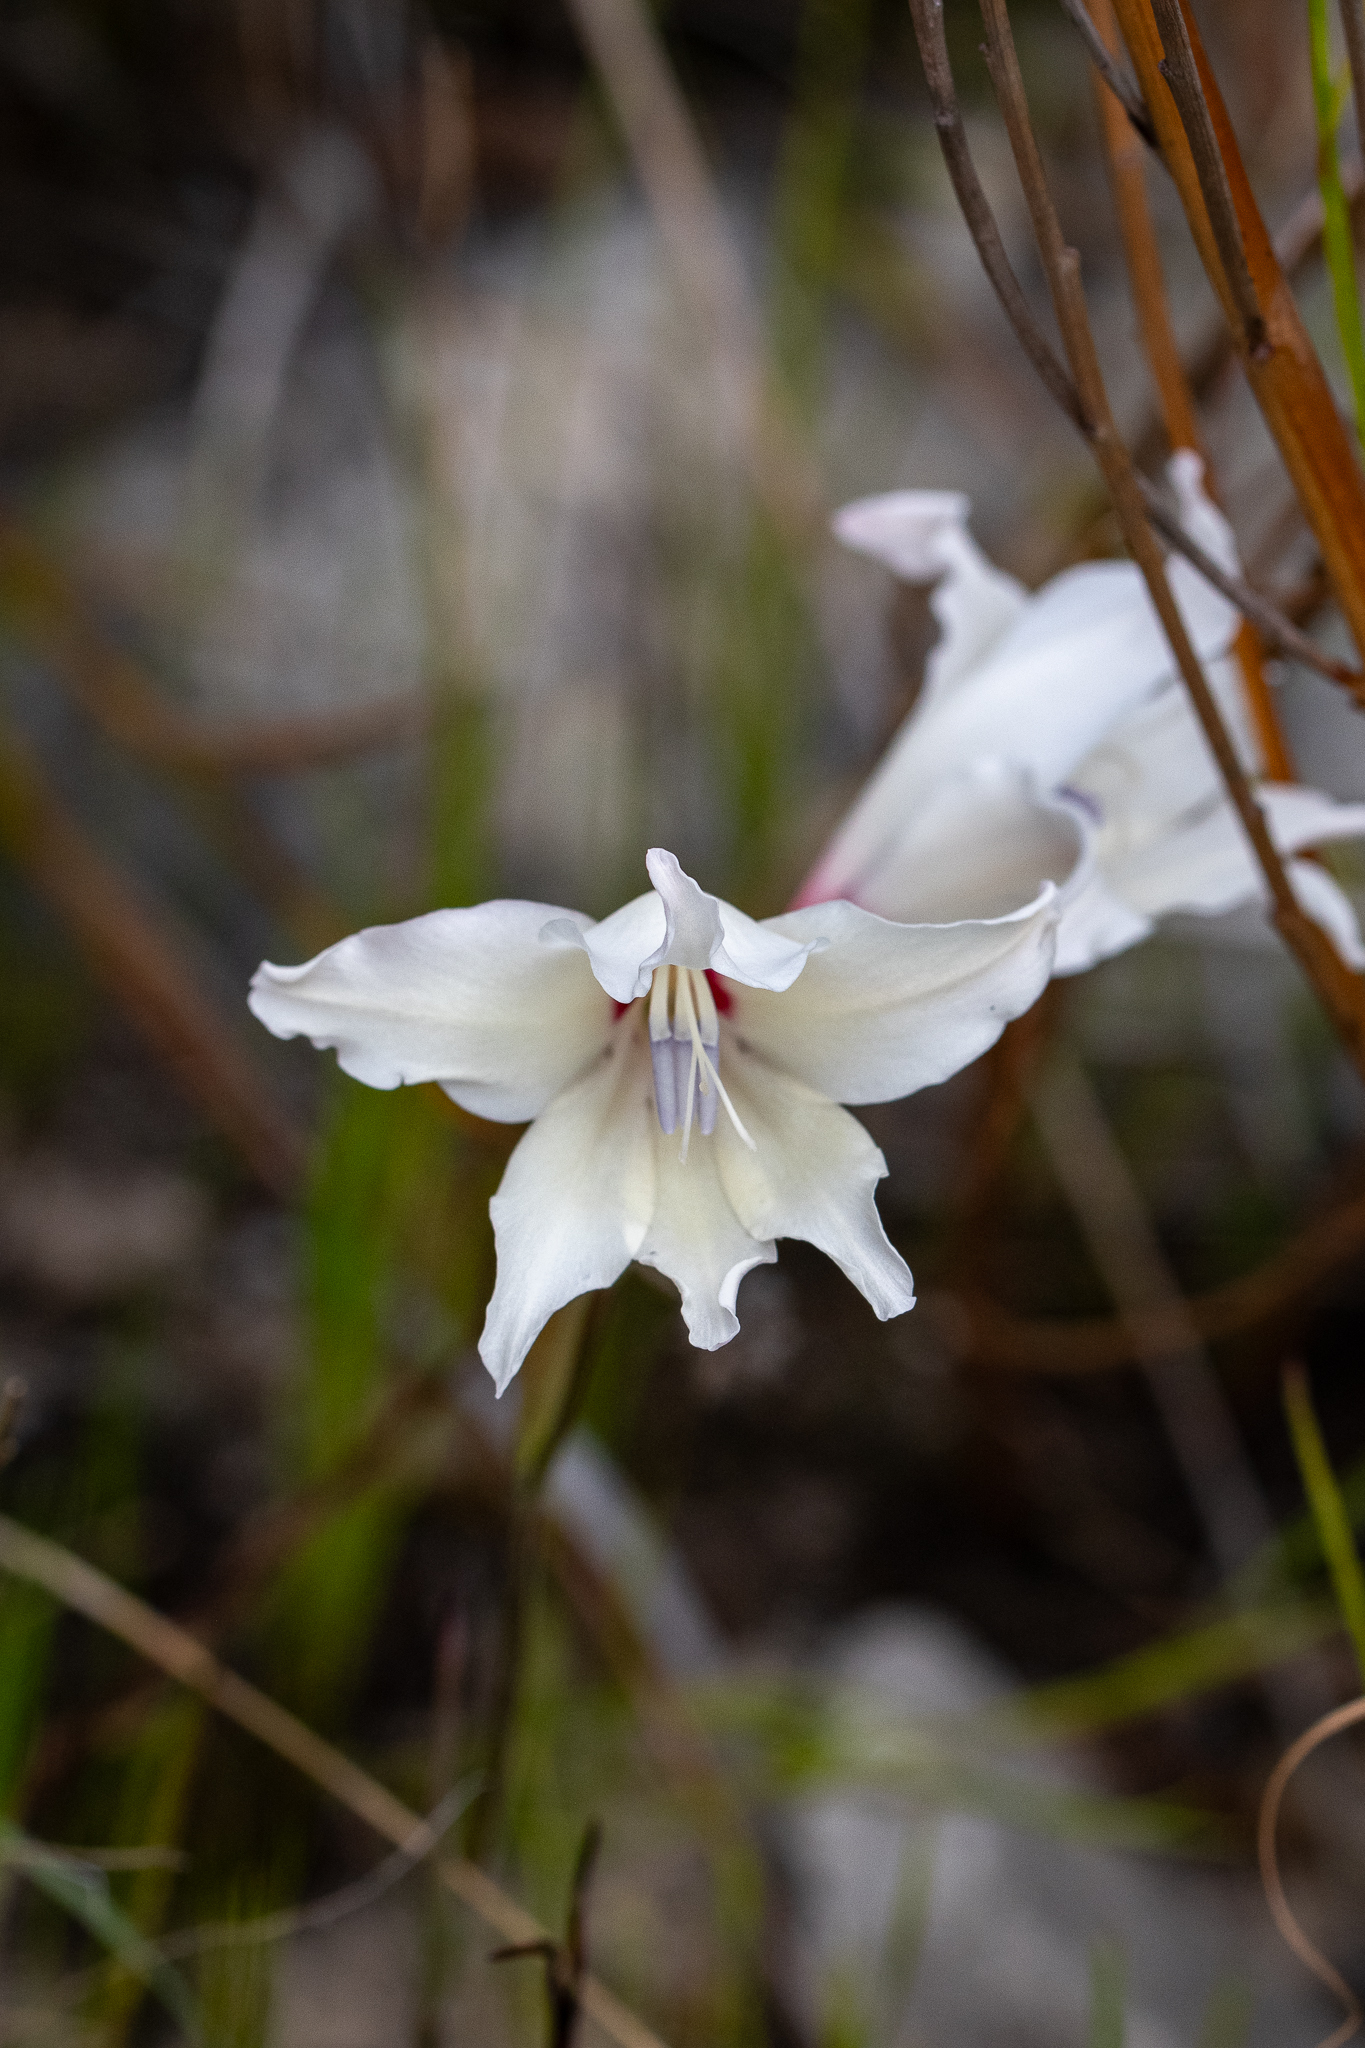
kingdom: Plantae
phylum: Tracheophyta
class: Liliopsida
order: Asparagales
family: Iridaceae
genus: Gladiolus
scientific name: Gladiolus carneus
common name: Painted-lady
